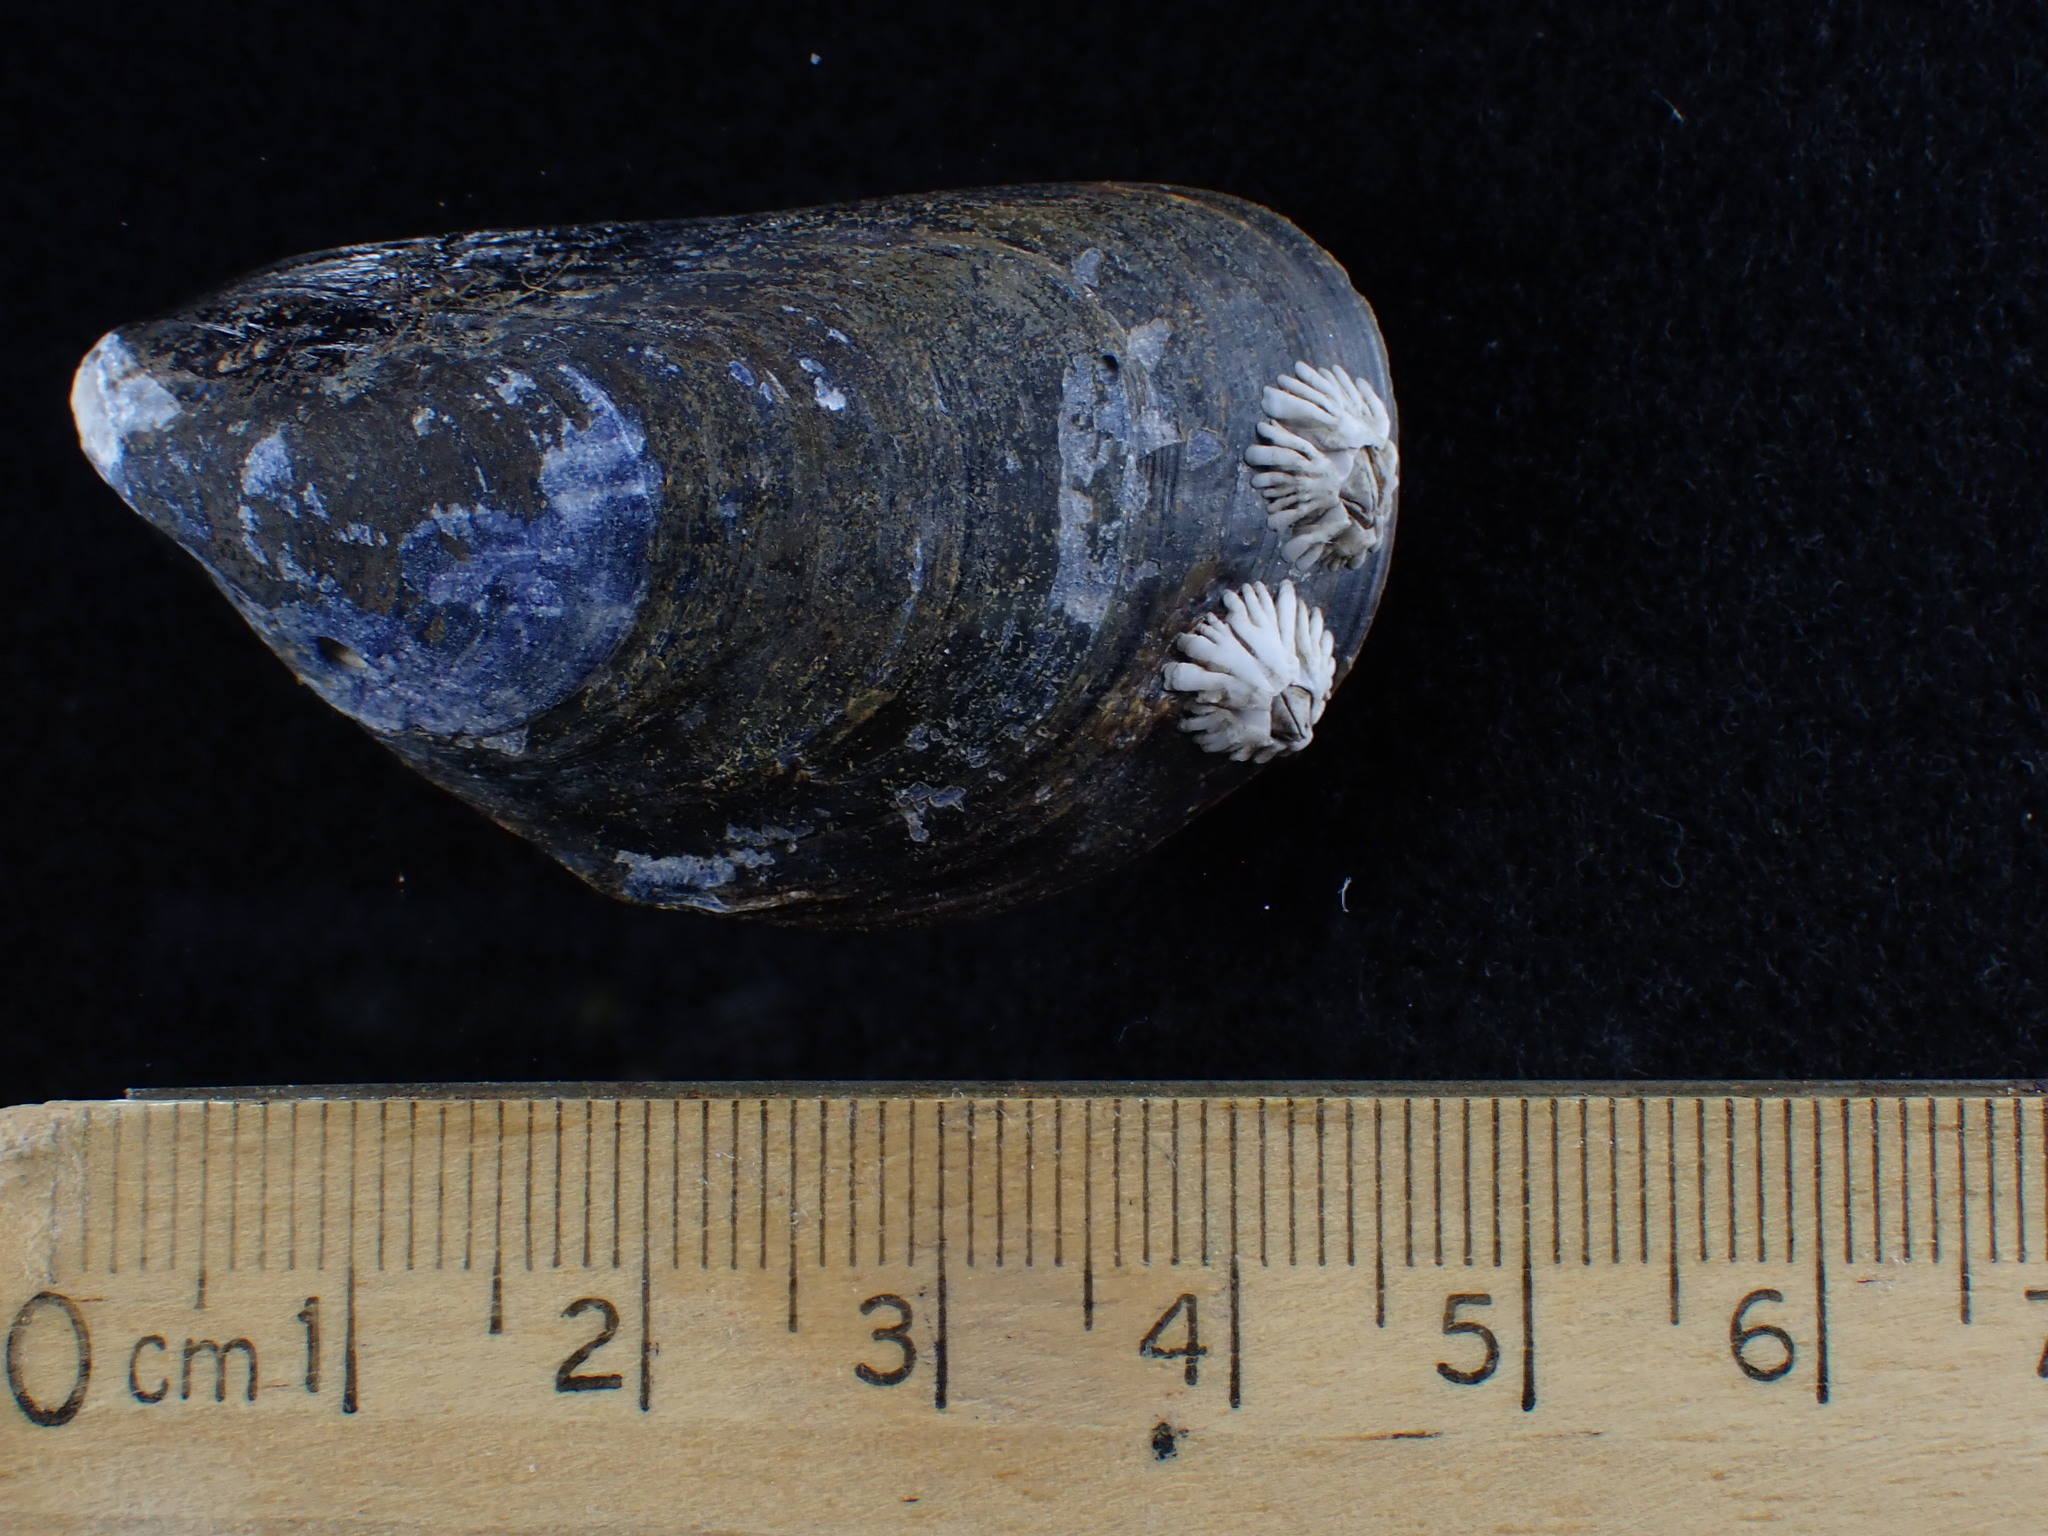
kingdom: Animalia
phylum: Mollusca
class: Bivalvia
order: Mytilida
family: Mytilidae
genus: Mytilus
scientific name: Mytilus edulis
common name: Blue mussel
